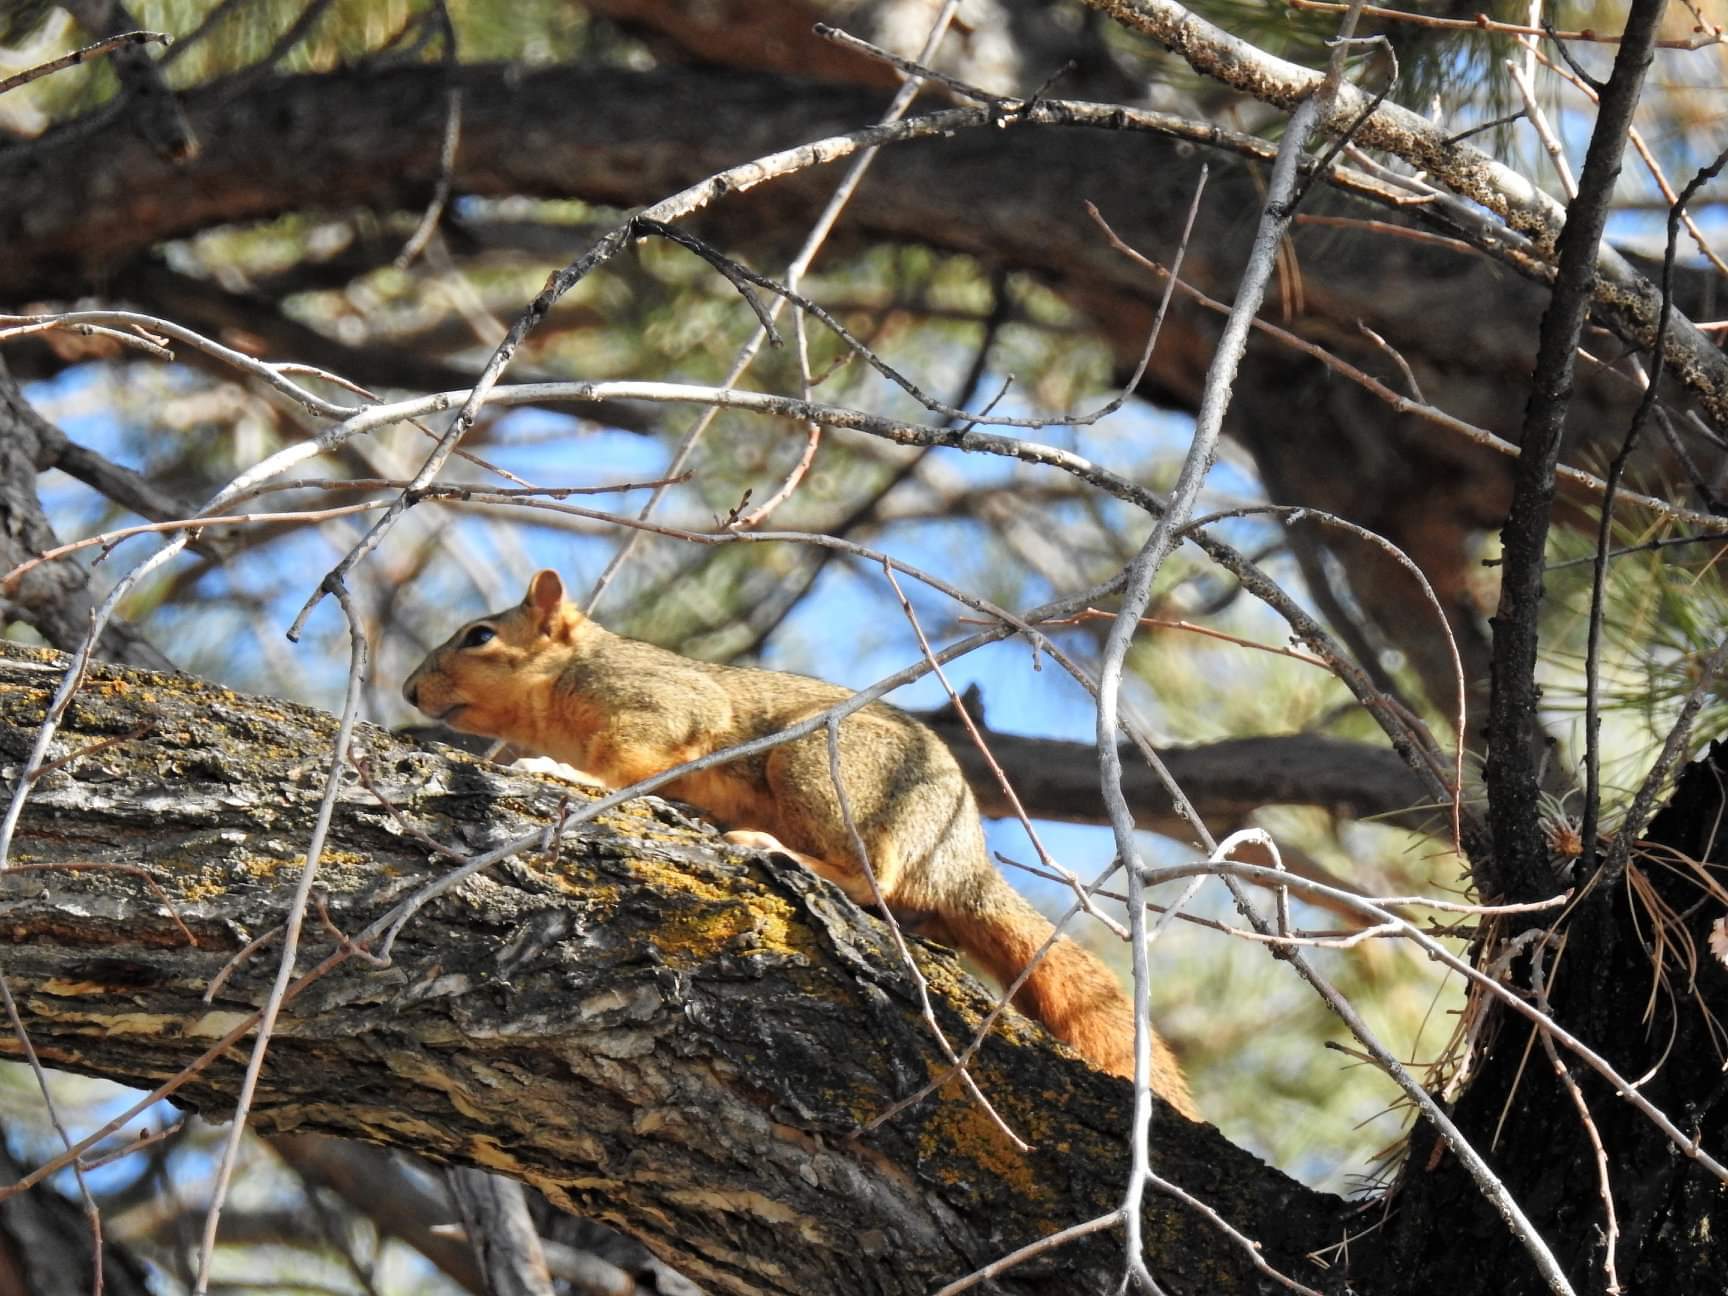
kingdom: Animalia
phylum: Chordata
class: Mammalia
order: Rodentia
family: Sciuridae
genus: Sciurus
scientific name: Sciurus niger
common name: Fox squirrel
